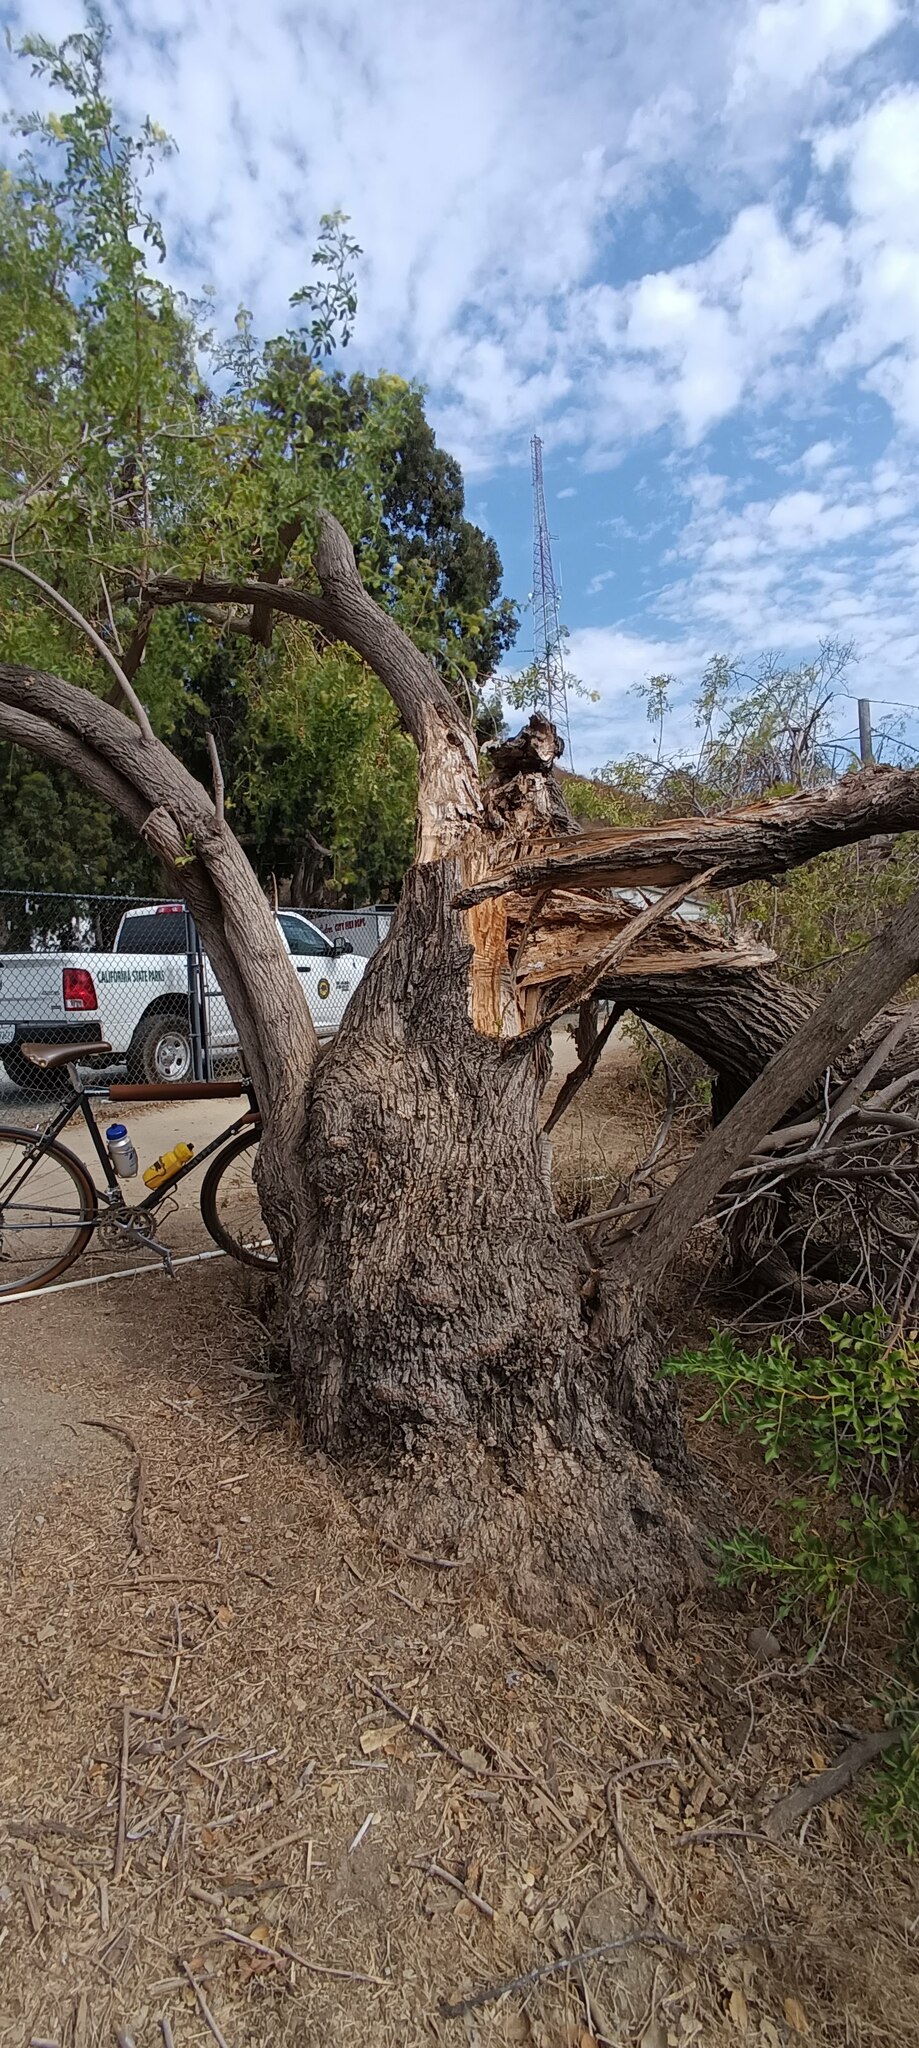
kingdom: Plantae
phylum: Tracheophyta
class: Magnoliopsida
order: Dipsacales
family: Viburnaceae
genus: Sambucus
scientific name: Sambucus cerulea
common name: Blue elder
